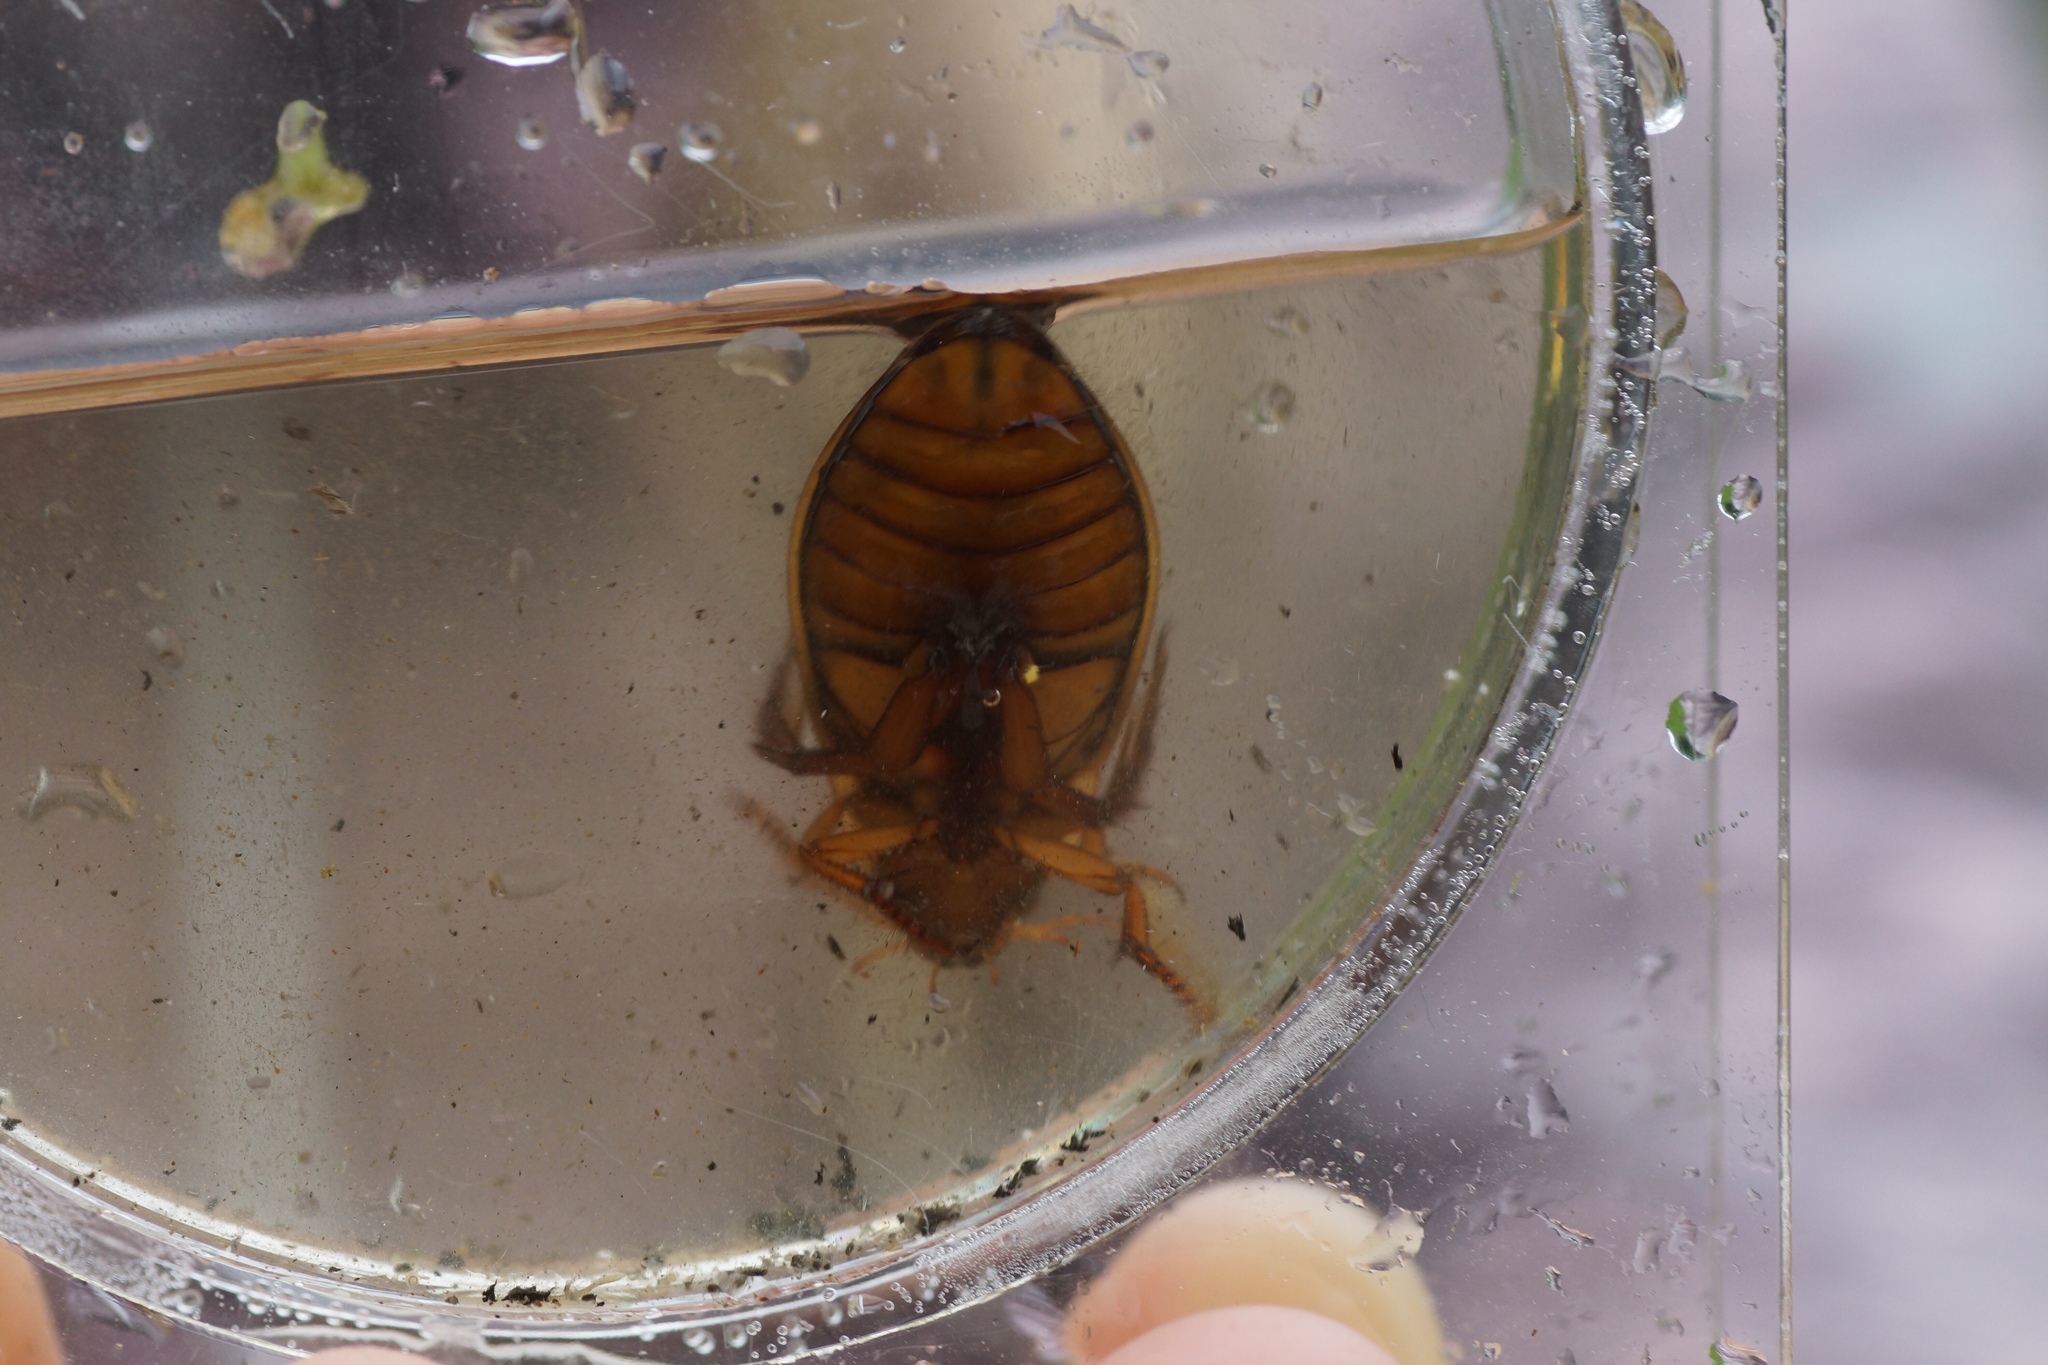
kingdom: Animalia
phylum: Arthropoda
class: Insecta
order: Coleoptera
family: Dytiscidae
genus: Dytiscus
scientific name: Dytiscus marginalis
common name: Great water beetle
